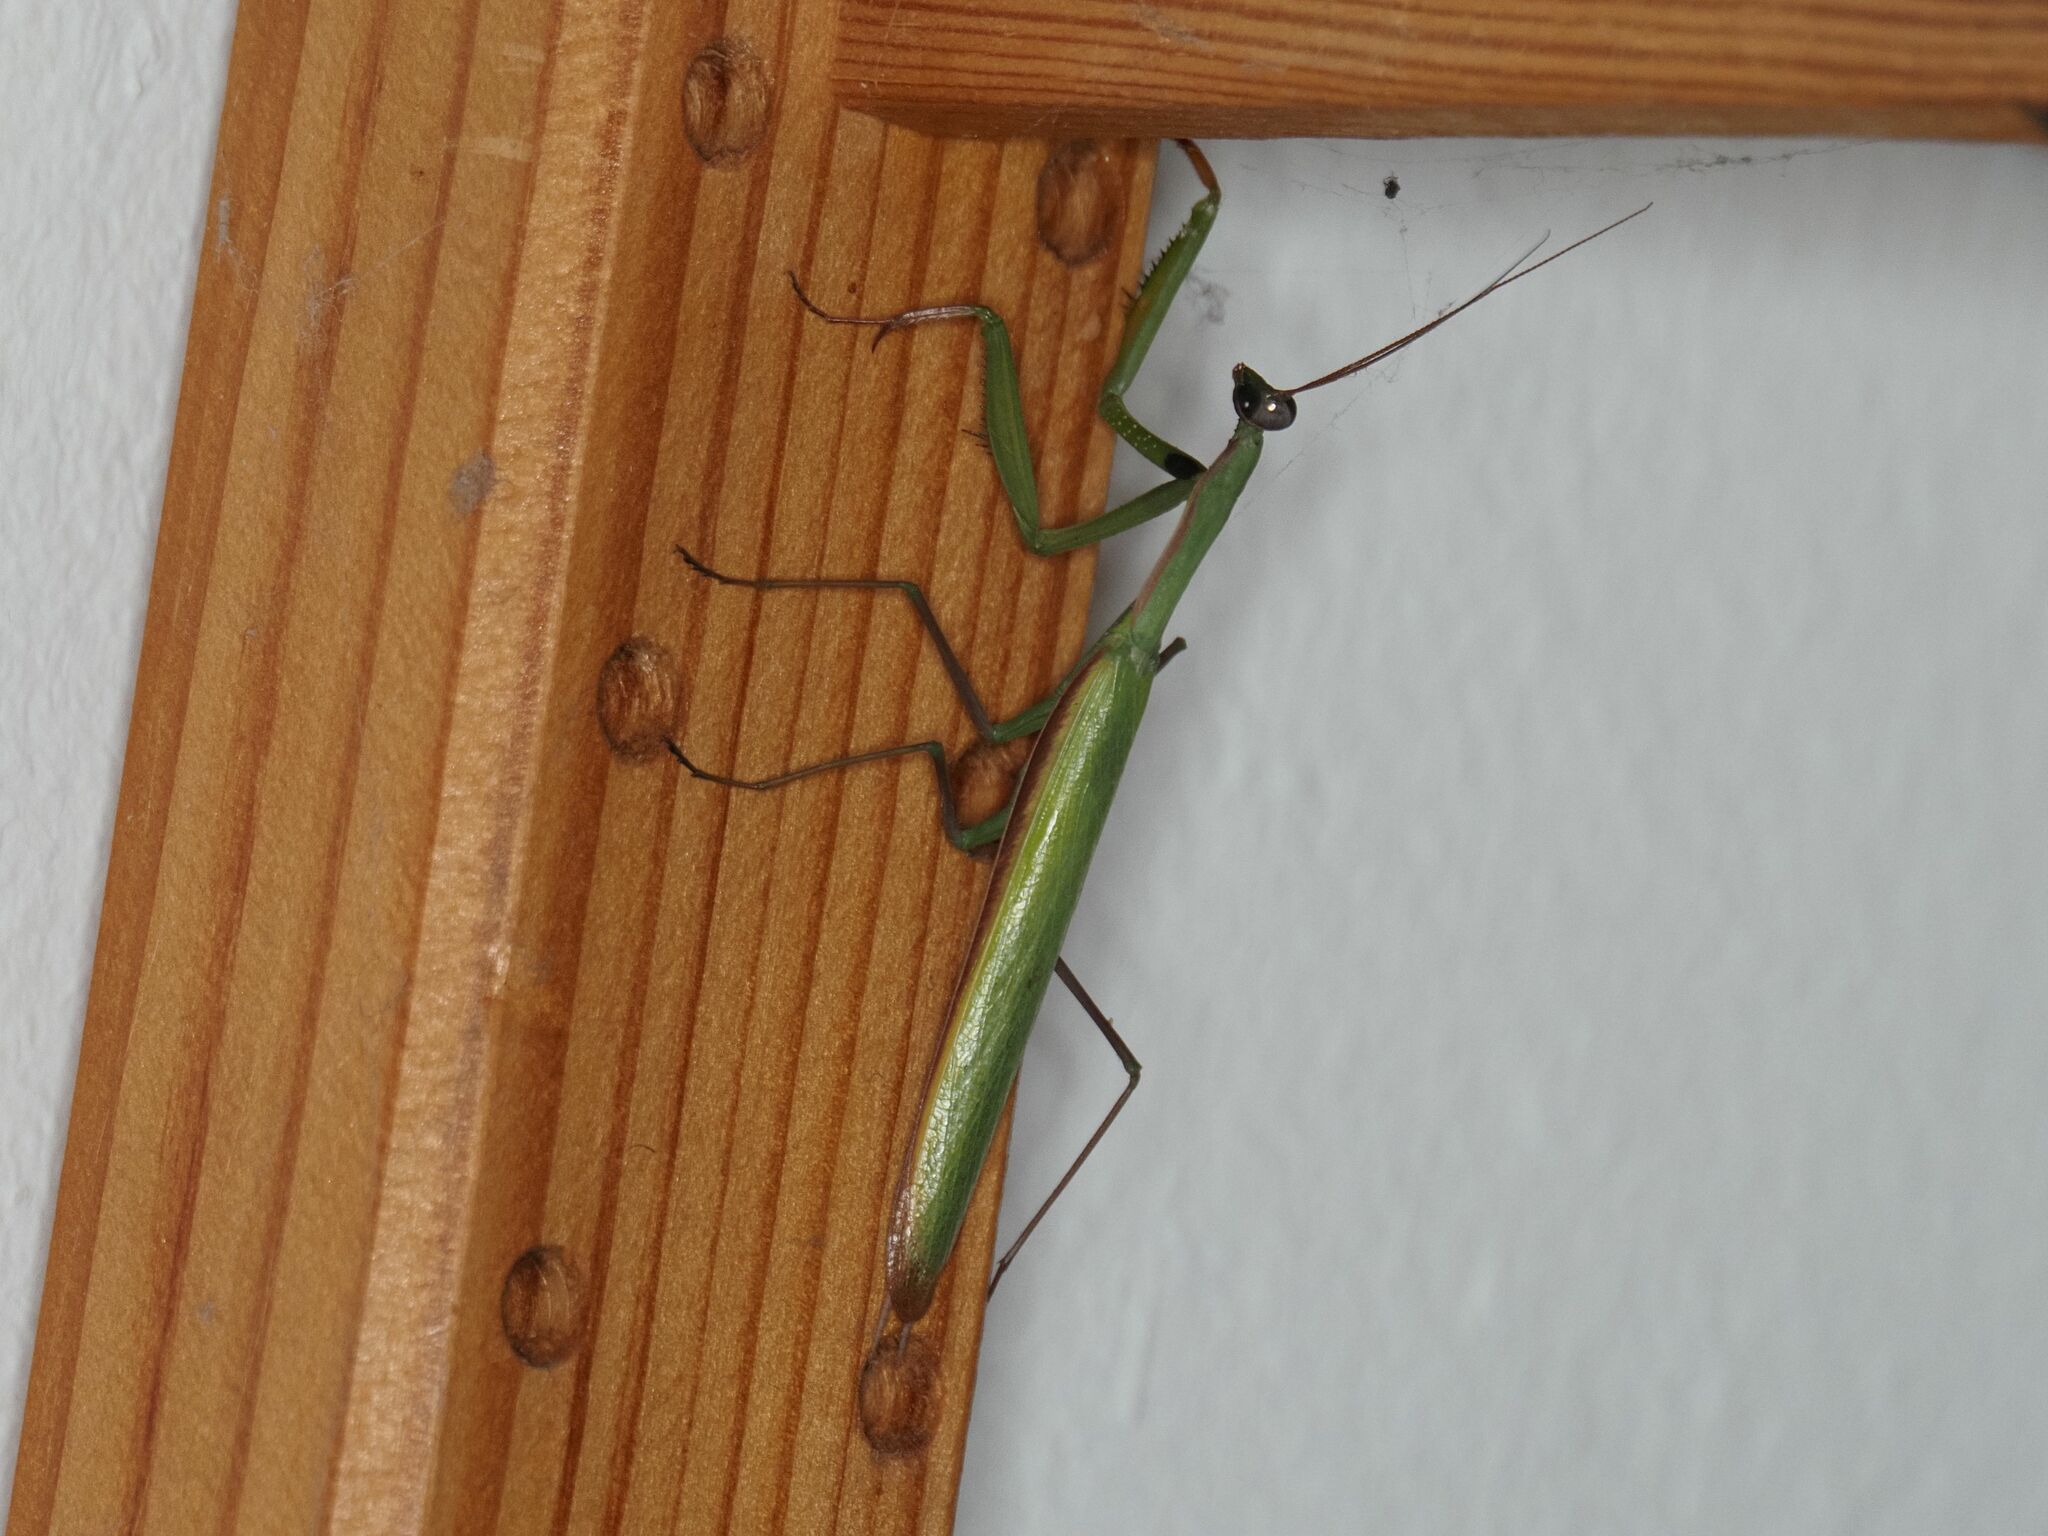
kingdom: Animalia
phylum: Arthropoda
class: Insecta
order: Mantodea
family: Mantidae
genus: Mantis
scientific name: Mantis religiosa
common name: Praying mantis
